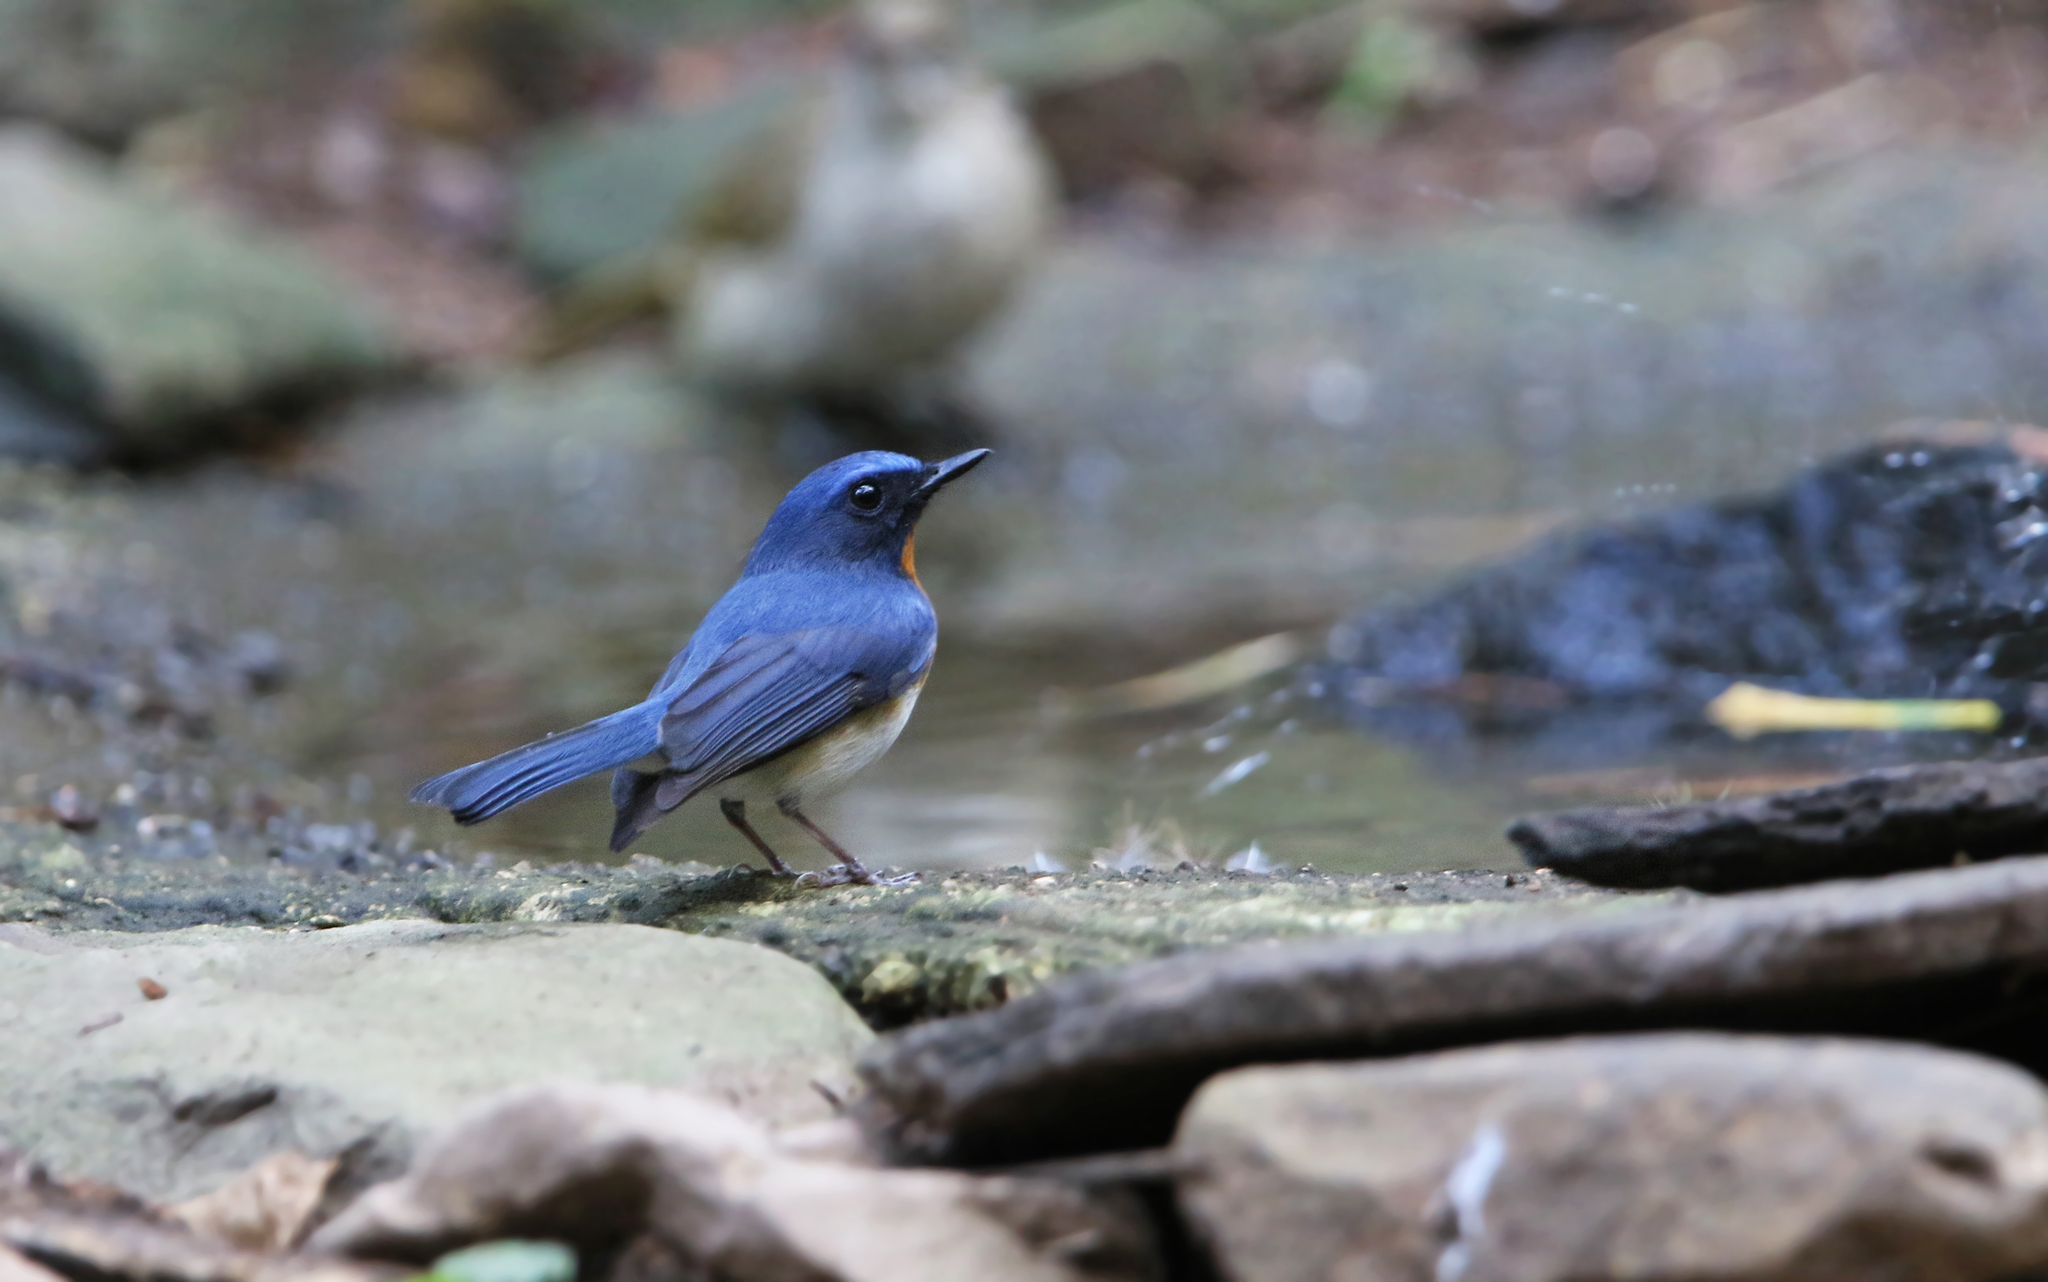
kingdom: Animalia
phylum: Chordata
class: Aves
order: Passeriformes
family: Muscicapidae
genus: Cyornis
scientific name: Cyornis tickelliae
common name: Tickell's blue flycatcher
